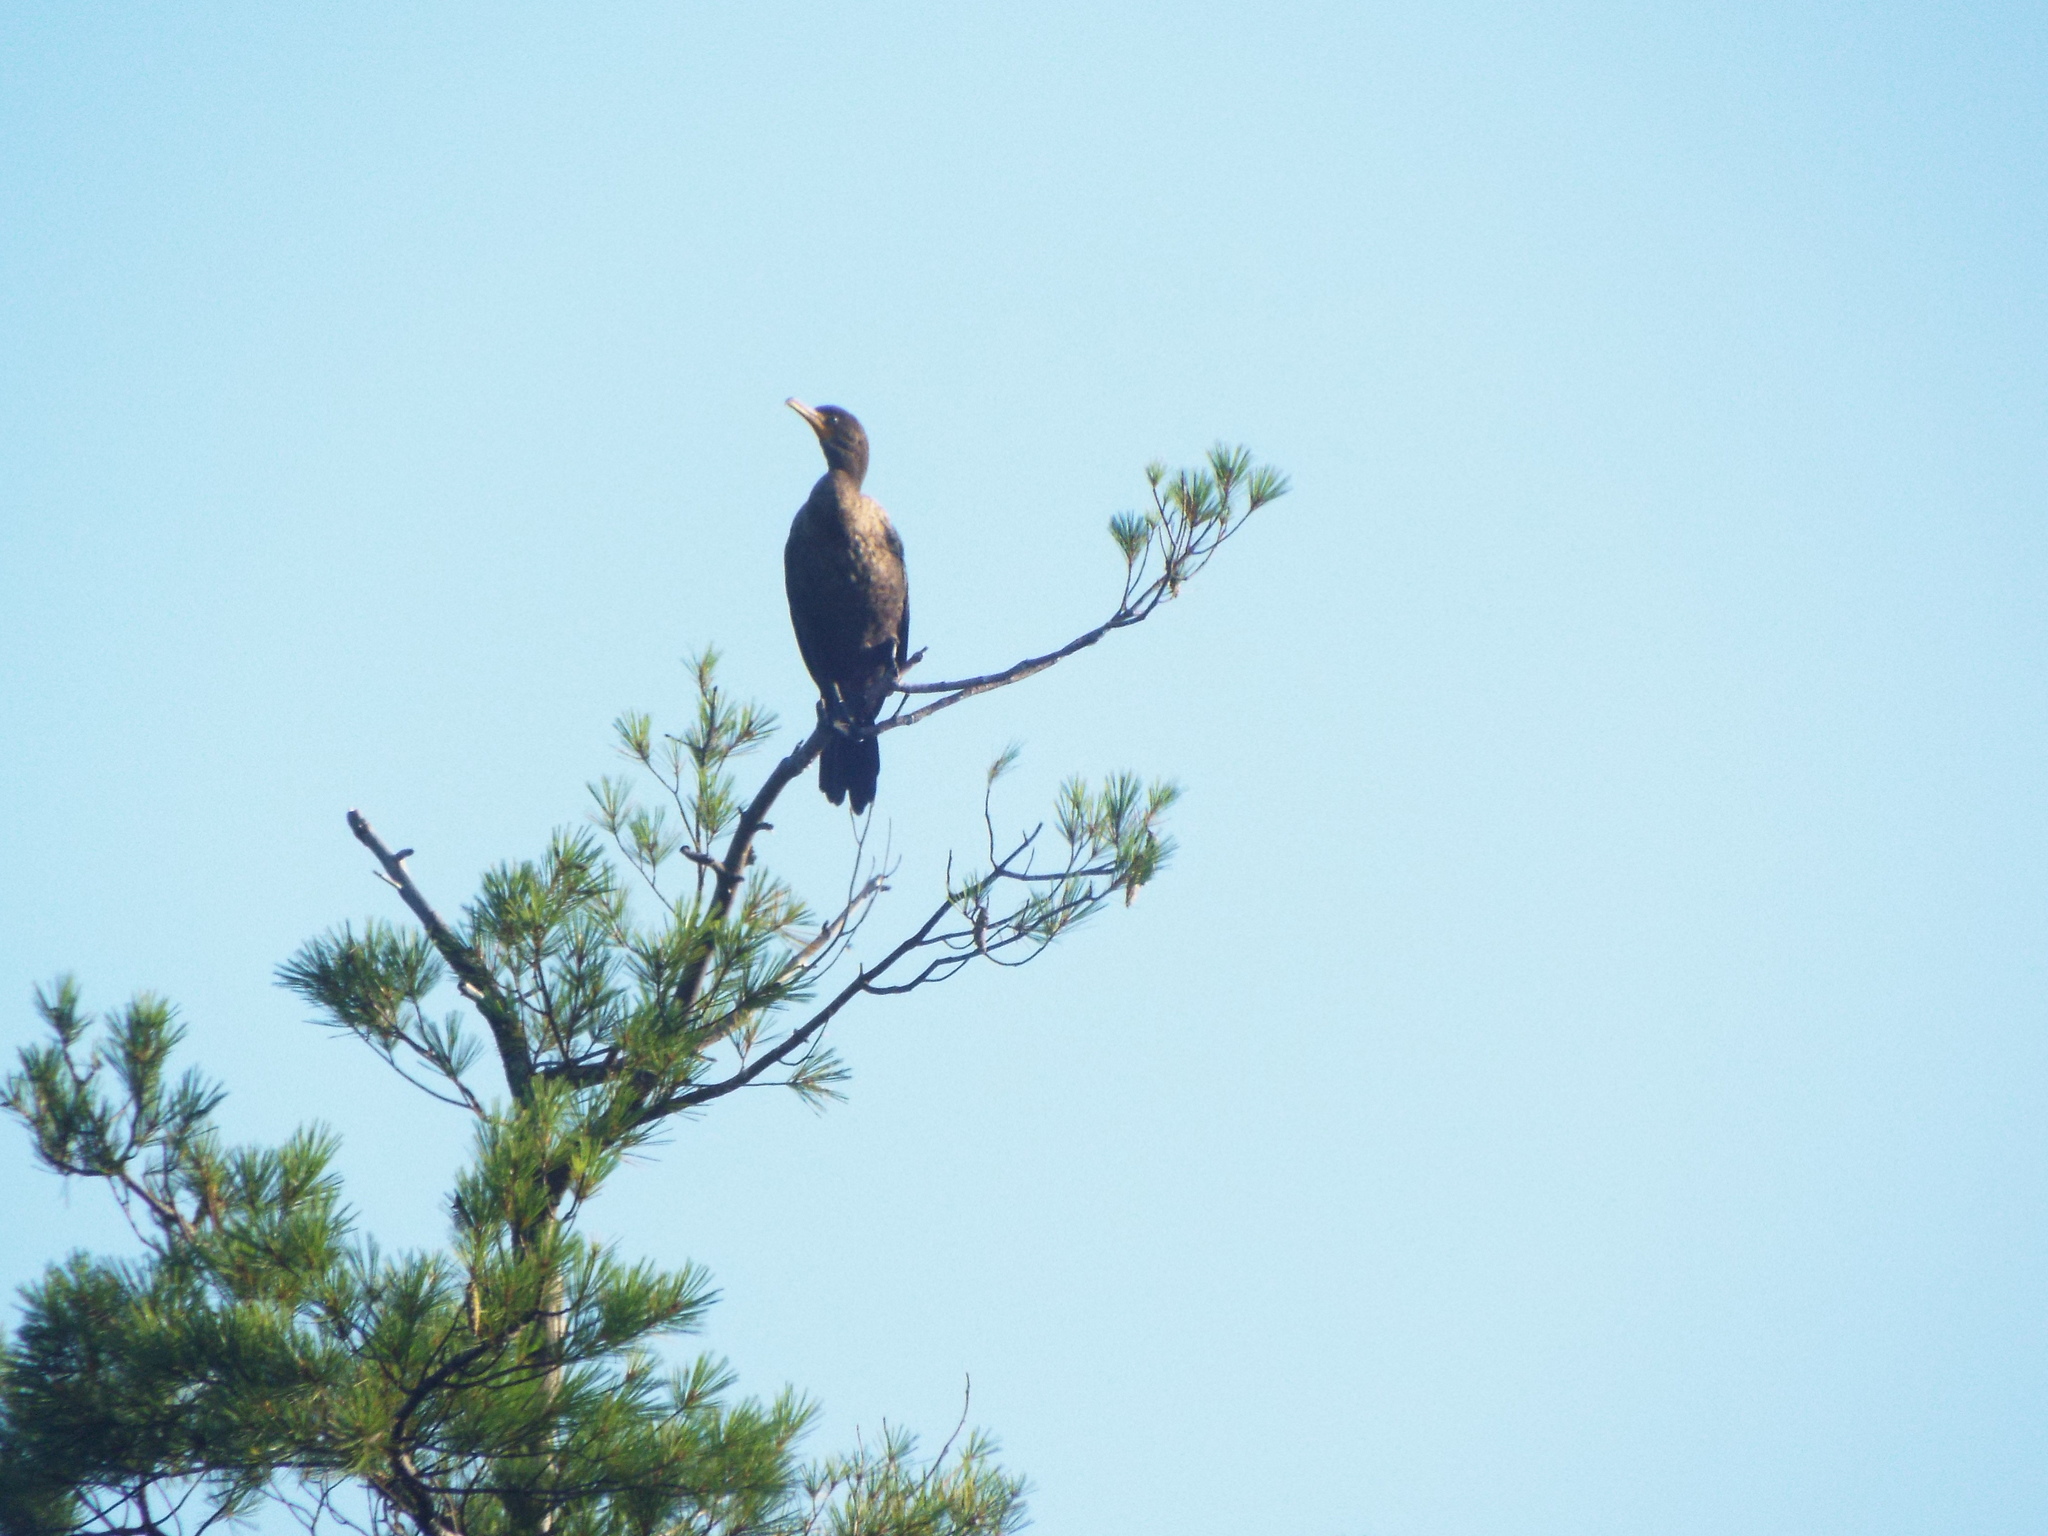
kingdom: Animalia
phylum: Chordata
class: Aves
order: Suliformes
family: Phalacrocoracidae
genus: Phalacrocorax
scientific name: Phalacrocorax auritus
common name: Double-crested cormorant
